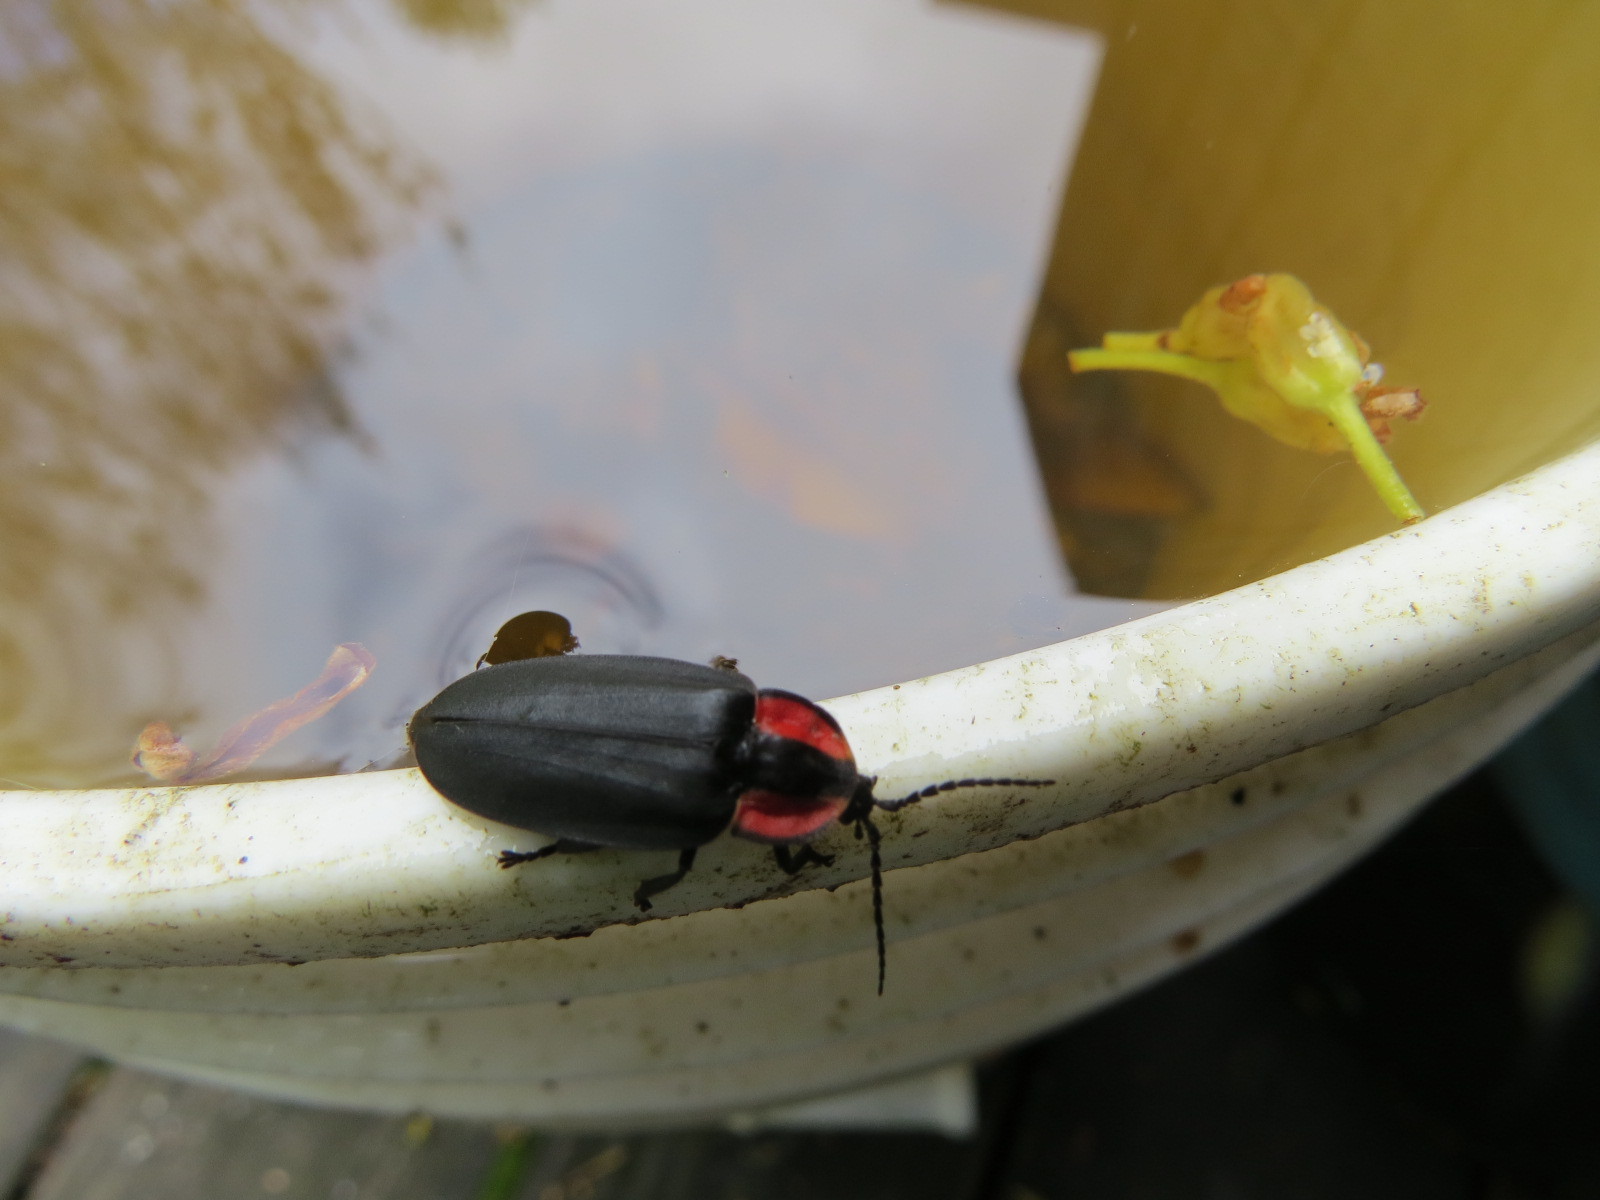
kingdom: Animalia
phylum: Arthropoda
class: Insecta
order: Coleoptera
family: Lampyridae
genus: Ellychnia
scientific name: Ellychnia megista
